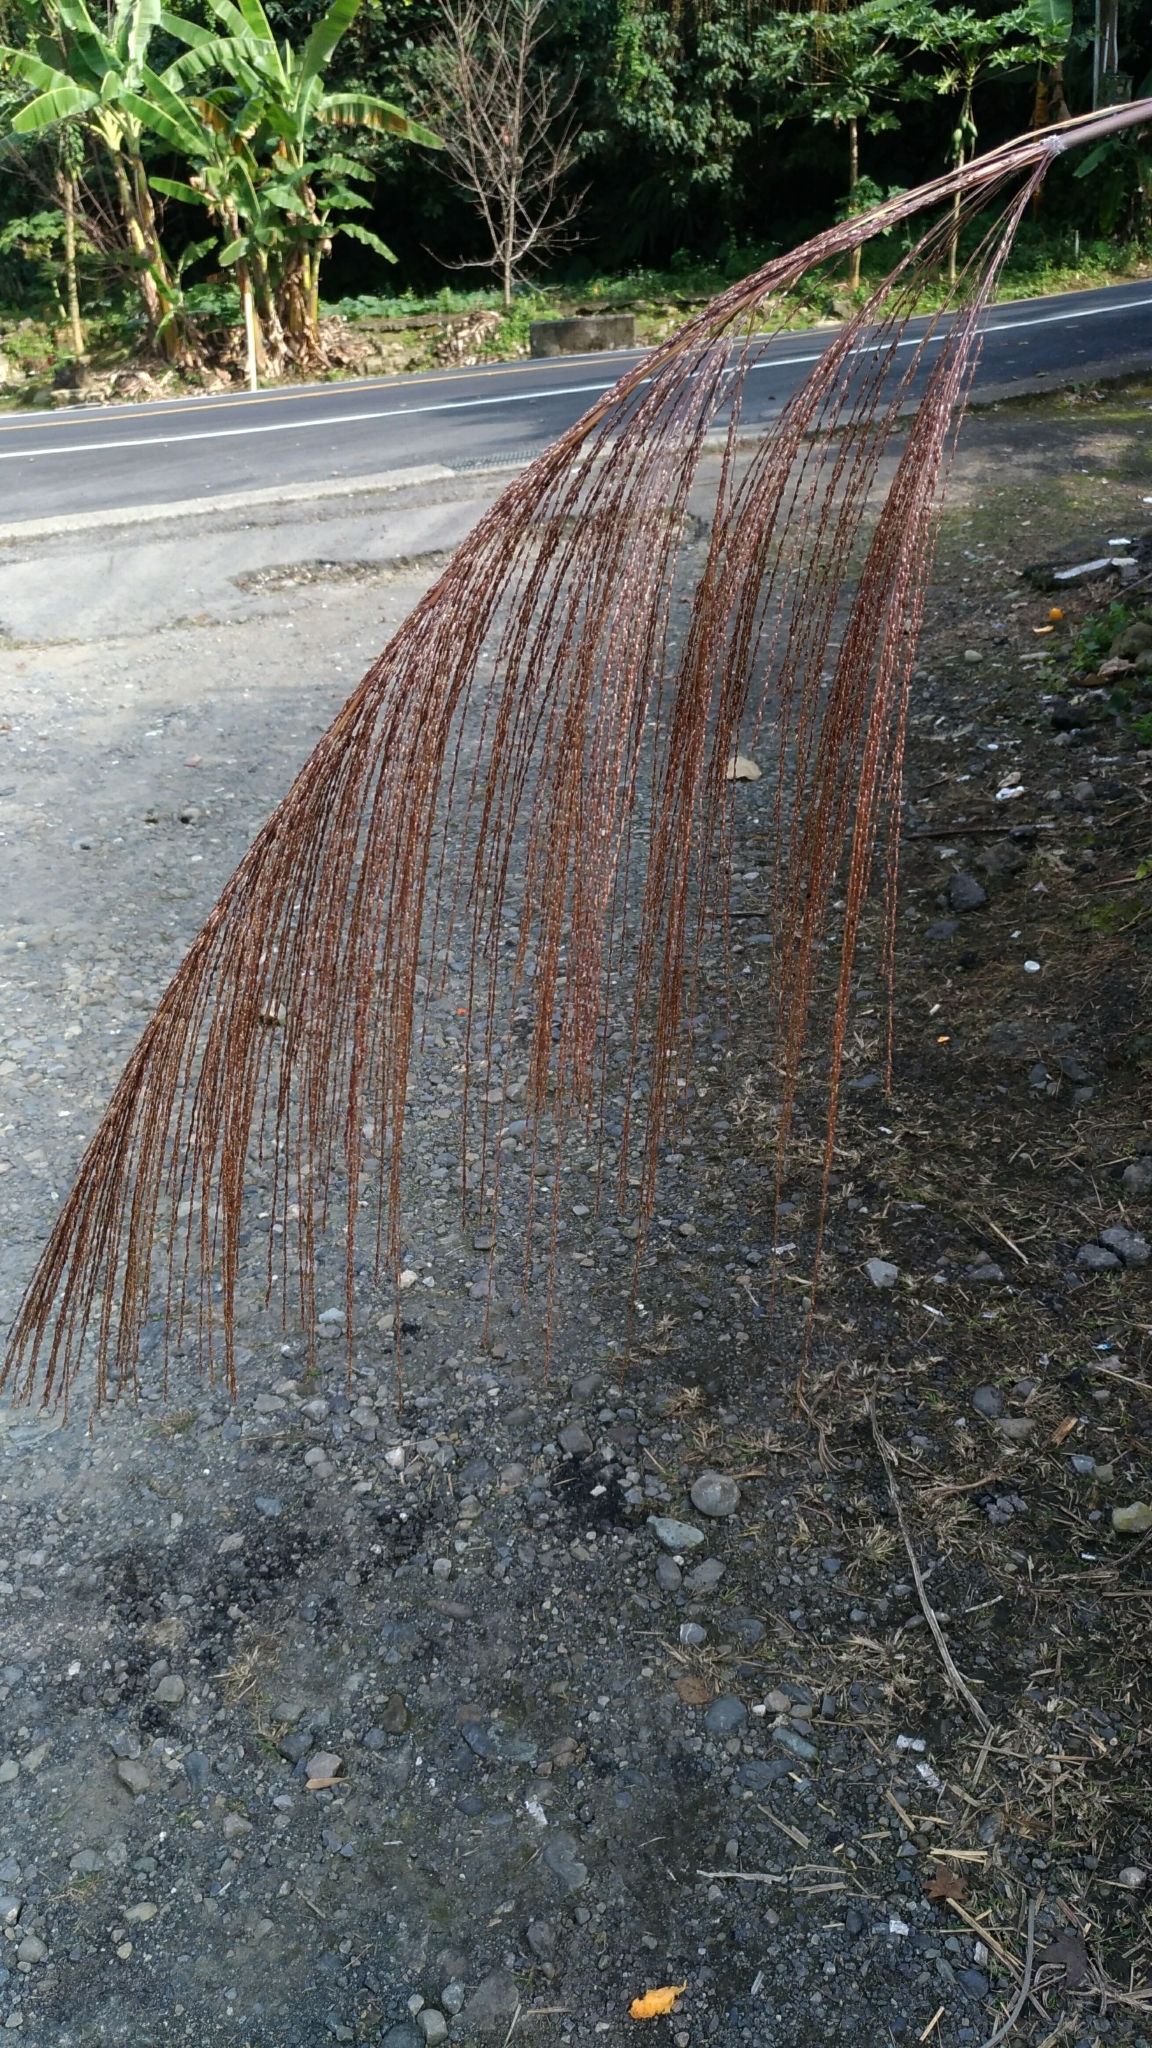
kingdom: Plantae
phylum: Tracheophyta
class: Liliopsida
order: Poales
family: Poaceae
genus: Miscanthus
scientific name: Miscanthus floridulus
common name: Pacific island silvergrass
